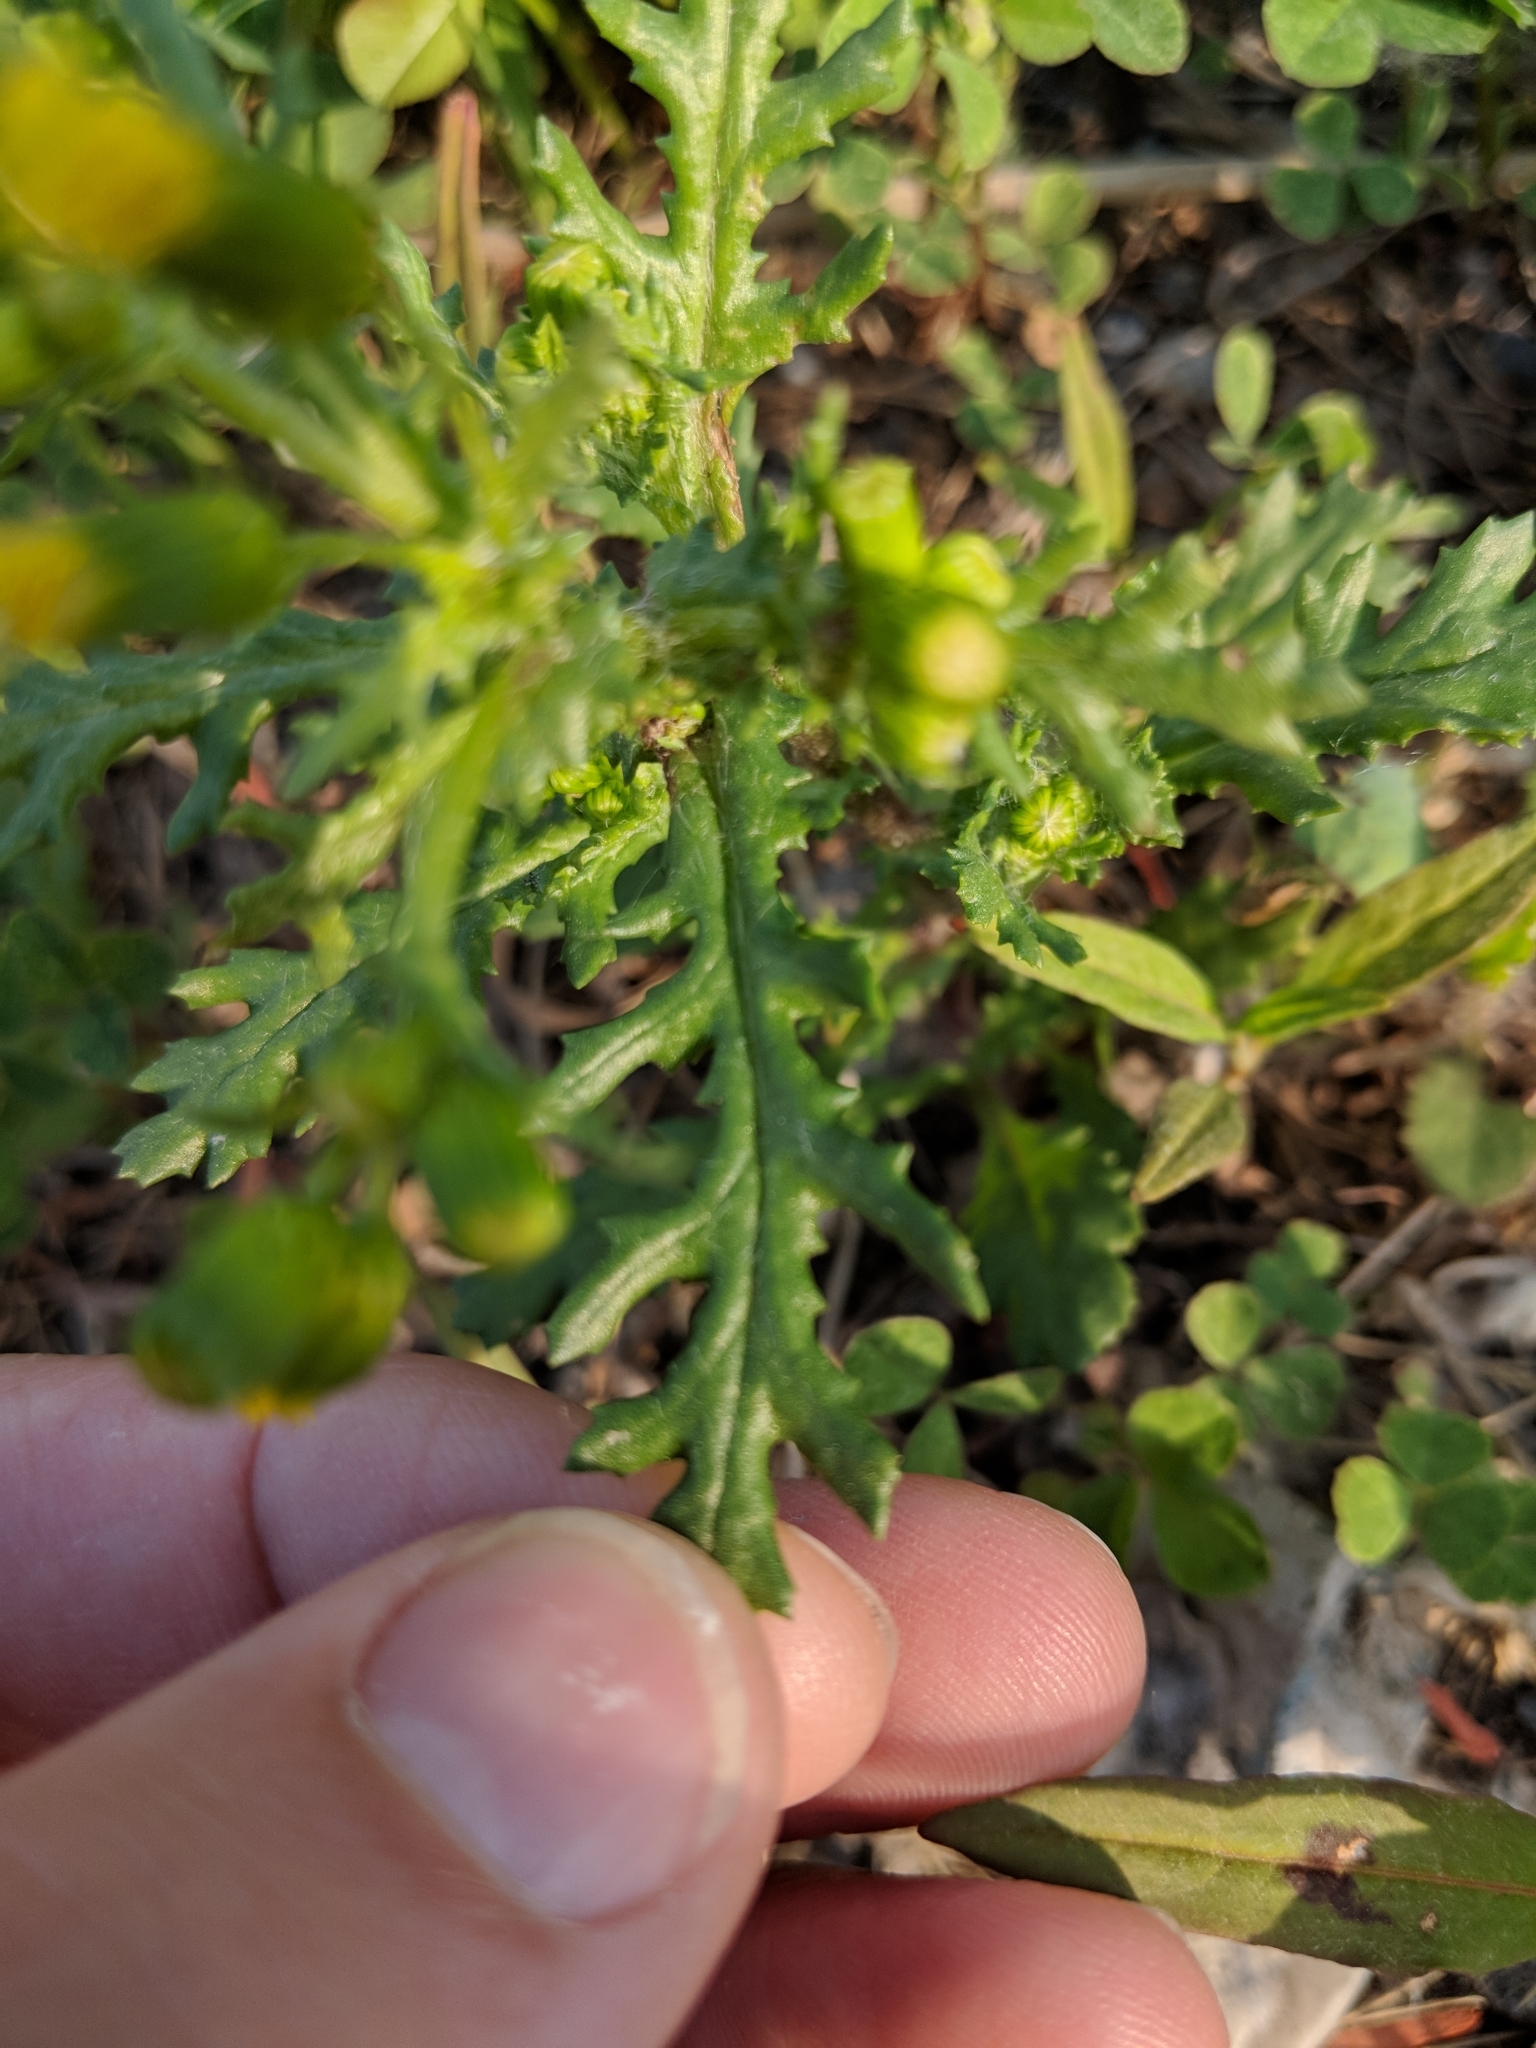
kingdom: Plantae
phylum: Tracheophyta
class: Magnoliopsida
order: Asterales
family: Asteraceae
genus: Senecio
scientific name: Senecio vulgaris
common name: Old-man-in-the-spring
